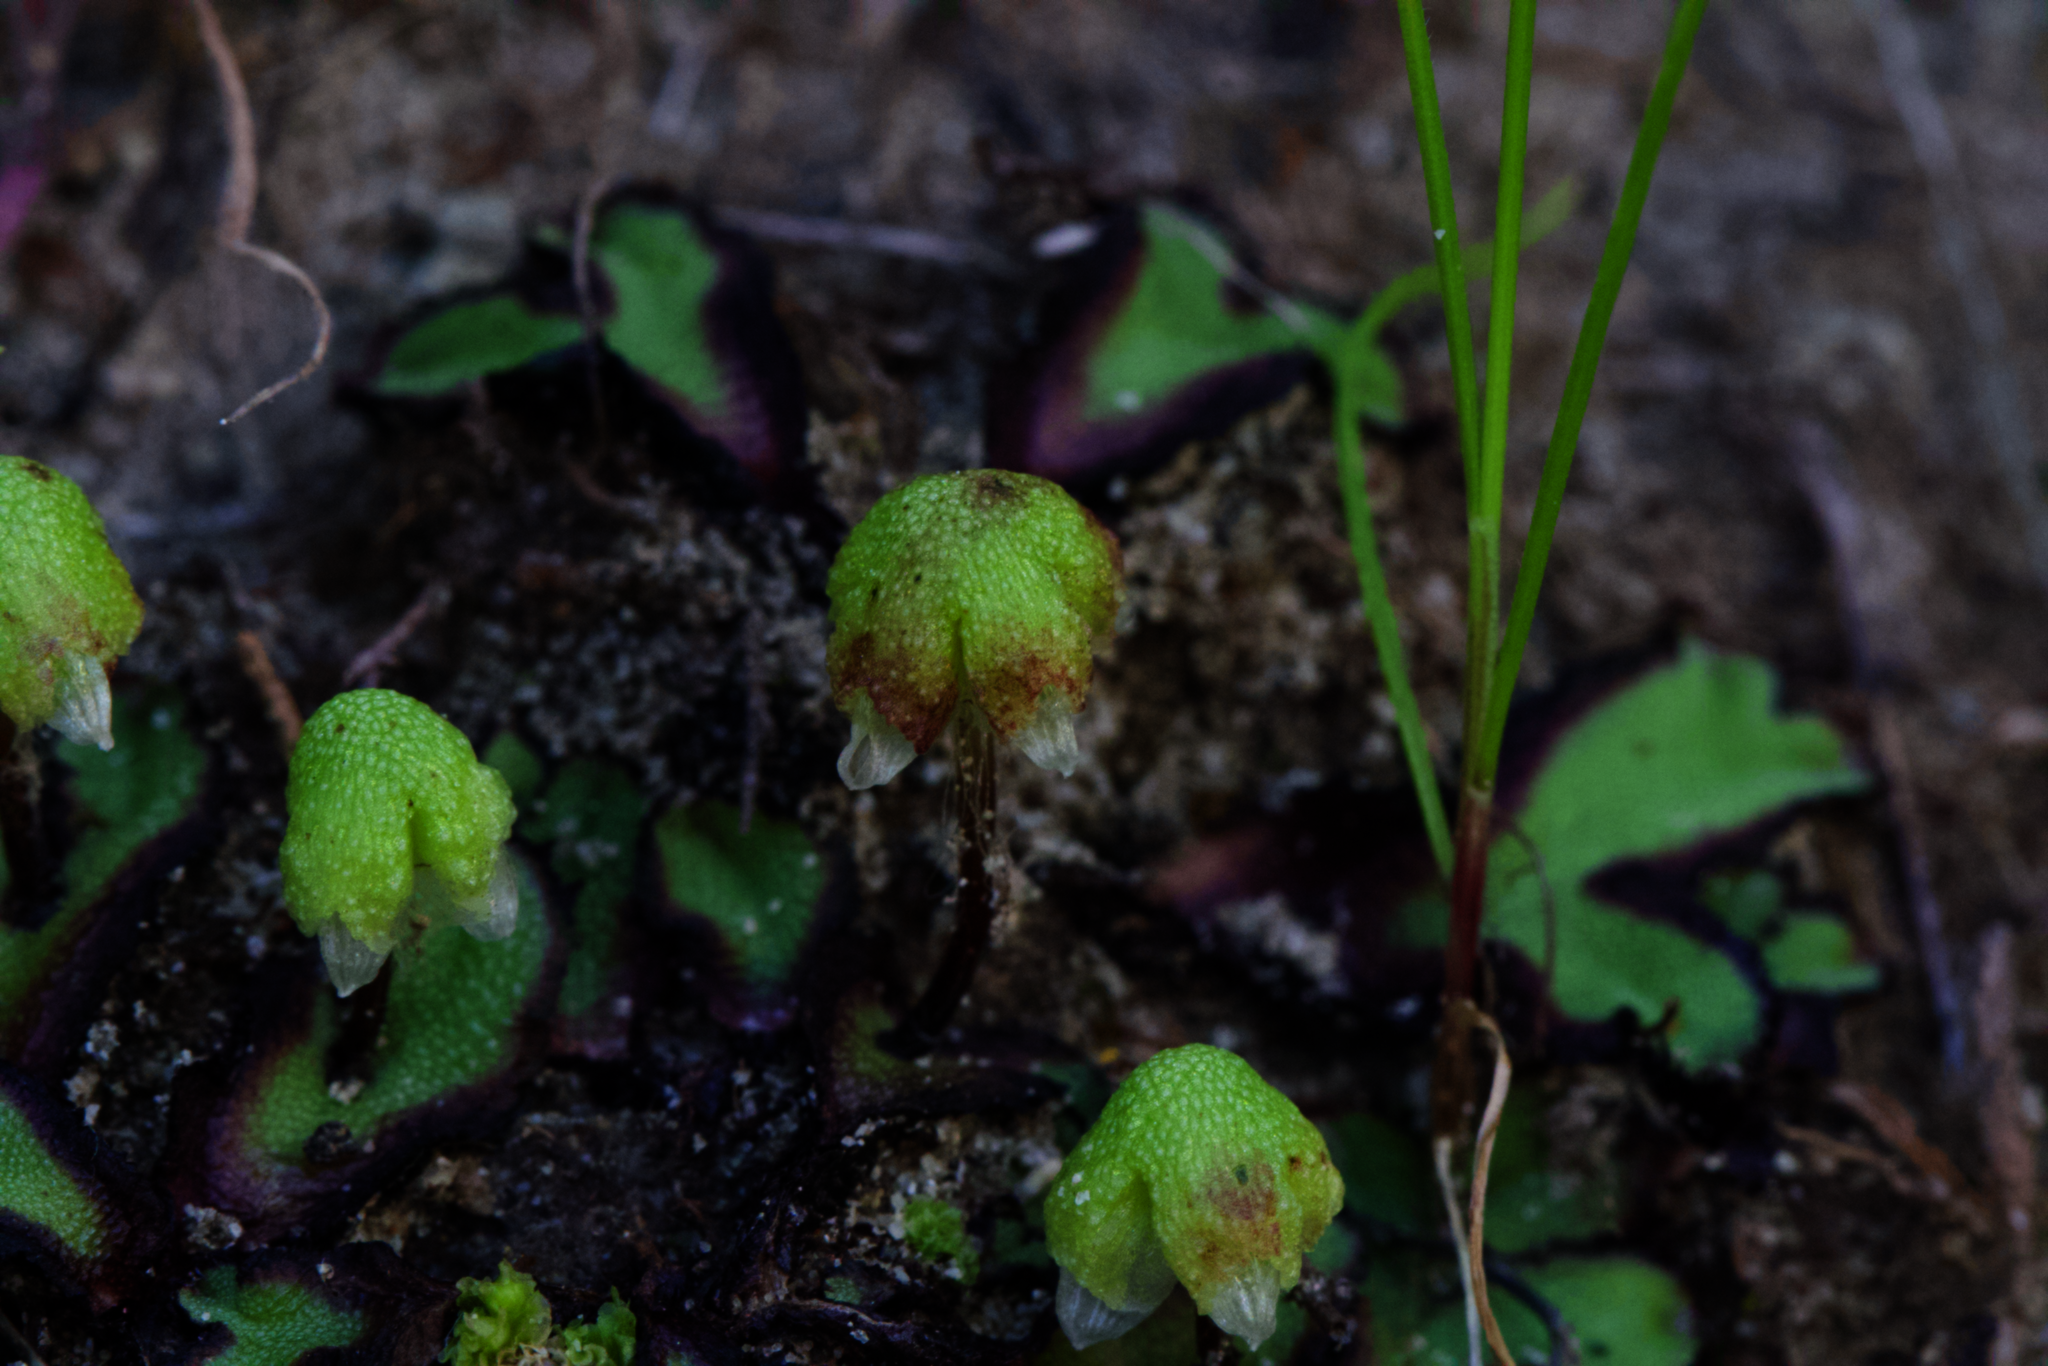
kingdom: Plantae
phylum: Marchantiophyta
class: Marchantiopsida
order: Marchantiales
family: Aytoniaceae
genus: Asterella
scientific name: Asterella californica
